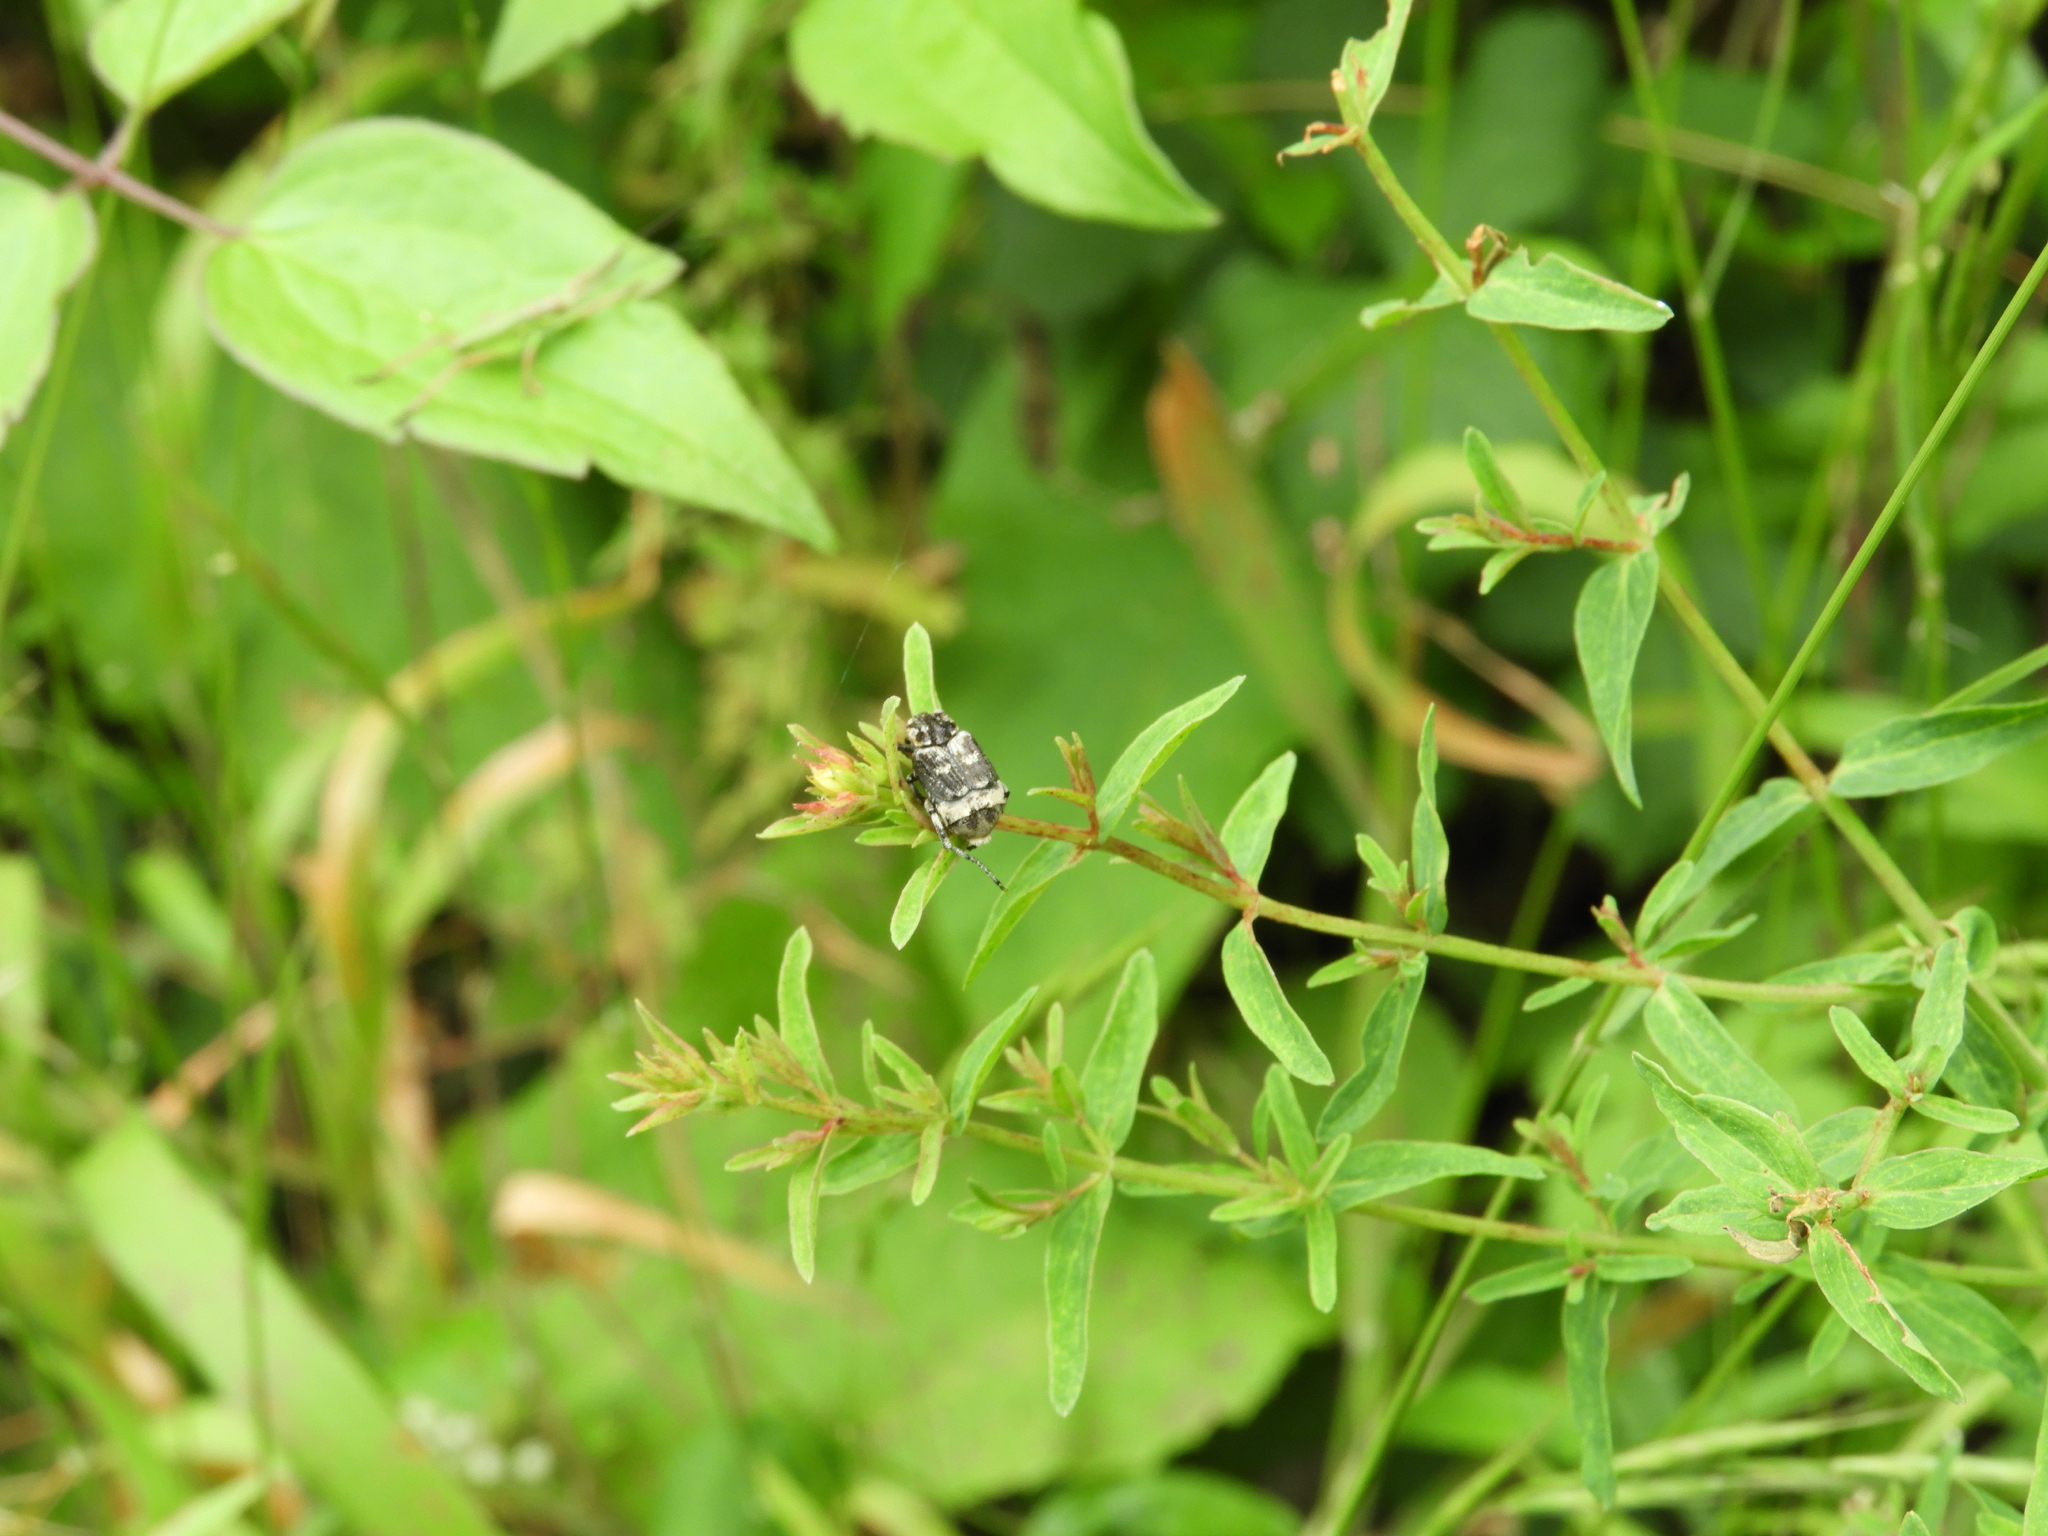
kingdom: Animalia
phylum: Arthropoda
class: Insecta
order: Coleoptera
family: Scarabaeidae
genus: Valgus
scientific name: Valgus hemipterus
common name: Bug flower chafer
